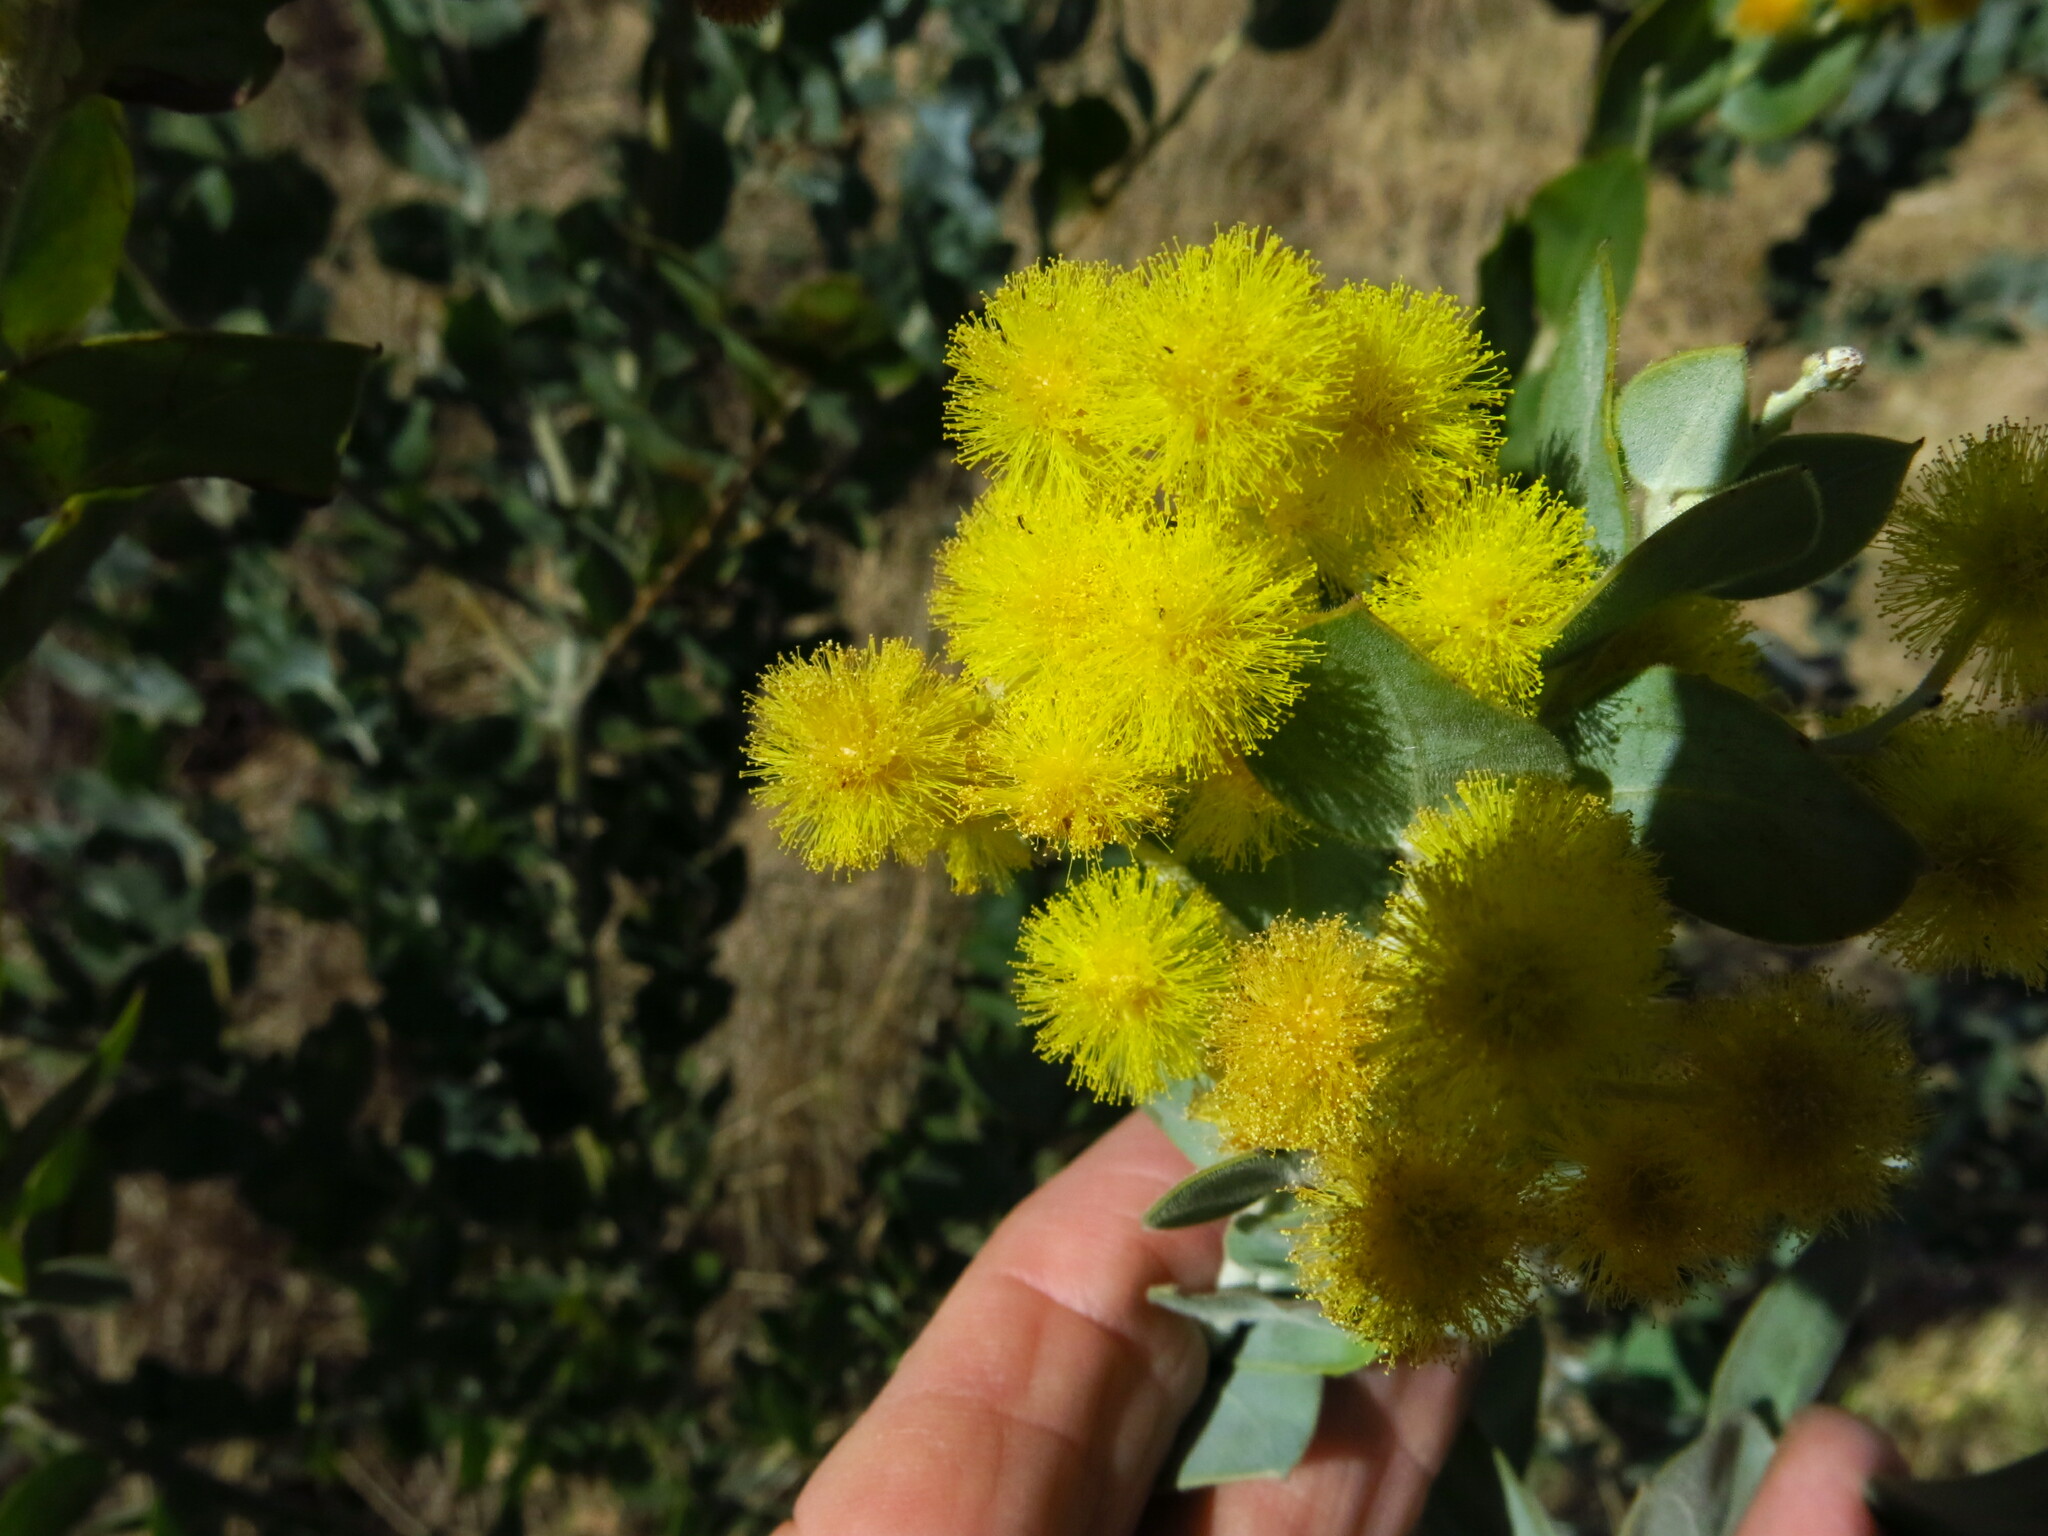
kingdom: Plantae
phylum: Tracheophyta
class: Magnoliopsida
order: Fabales
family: Fabaceae
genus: Acacia
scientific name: Acacia podalyriifolia
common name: Pearl wattle
